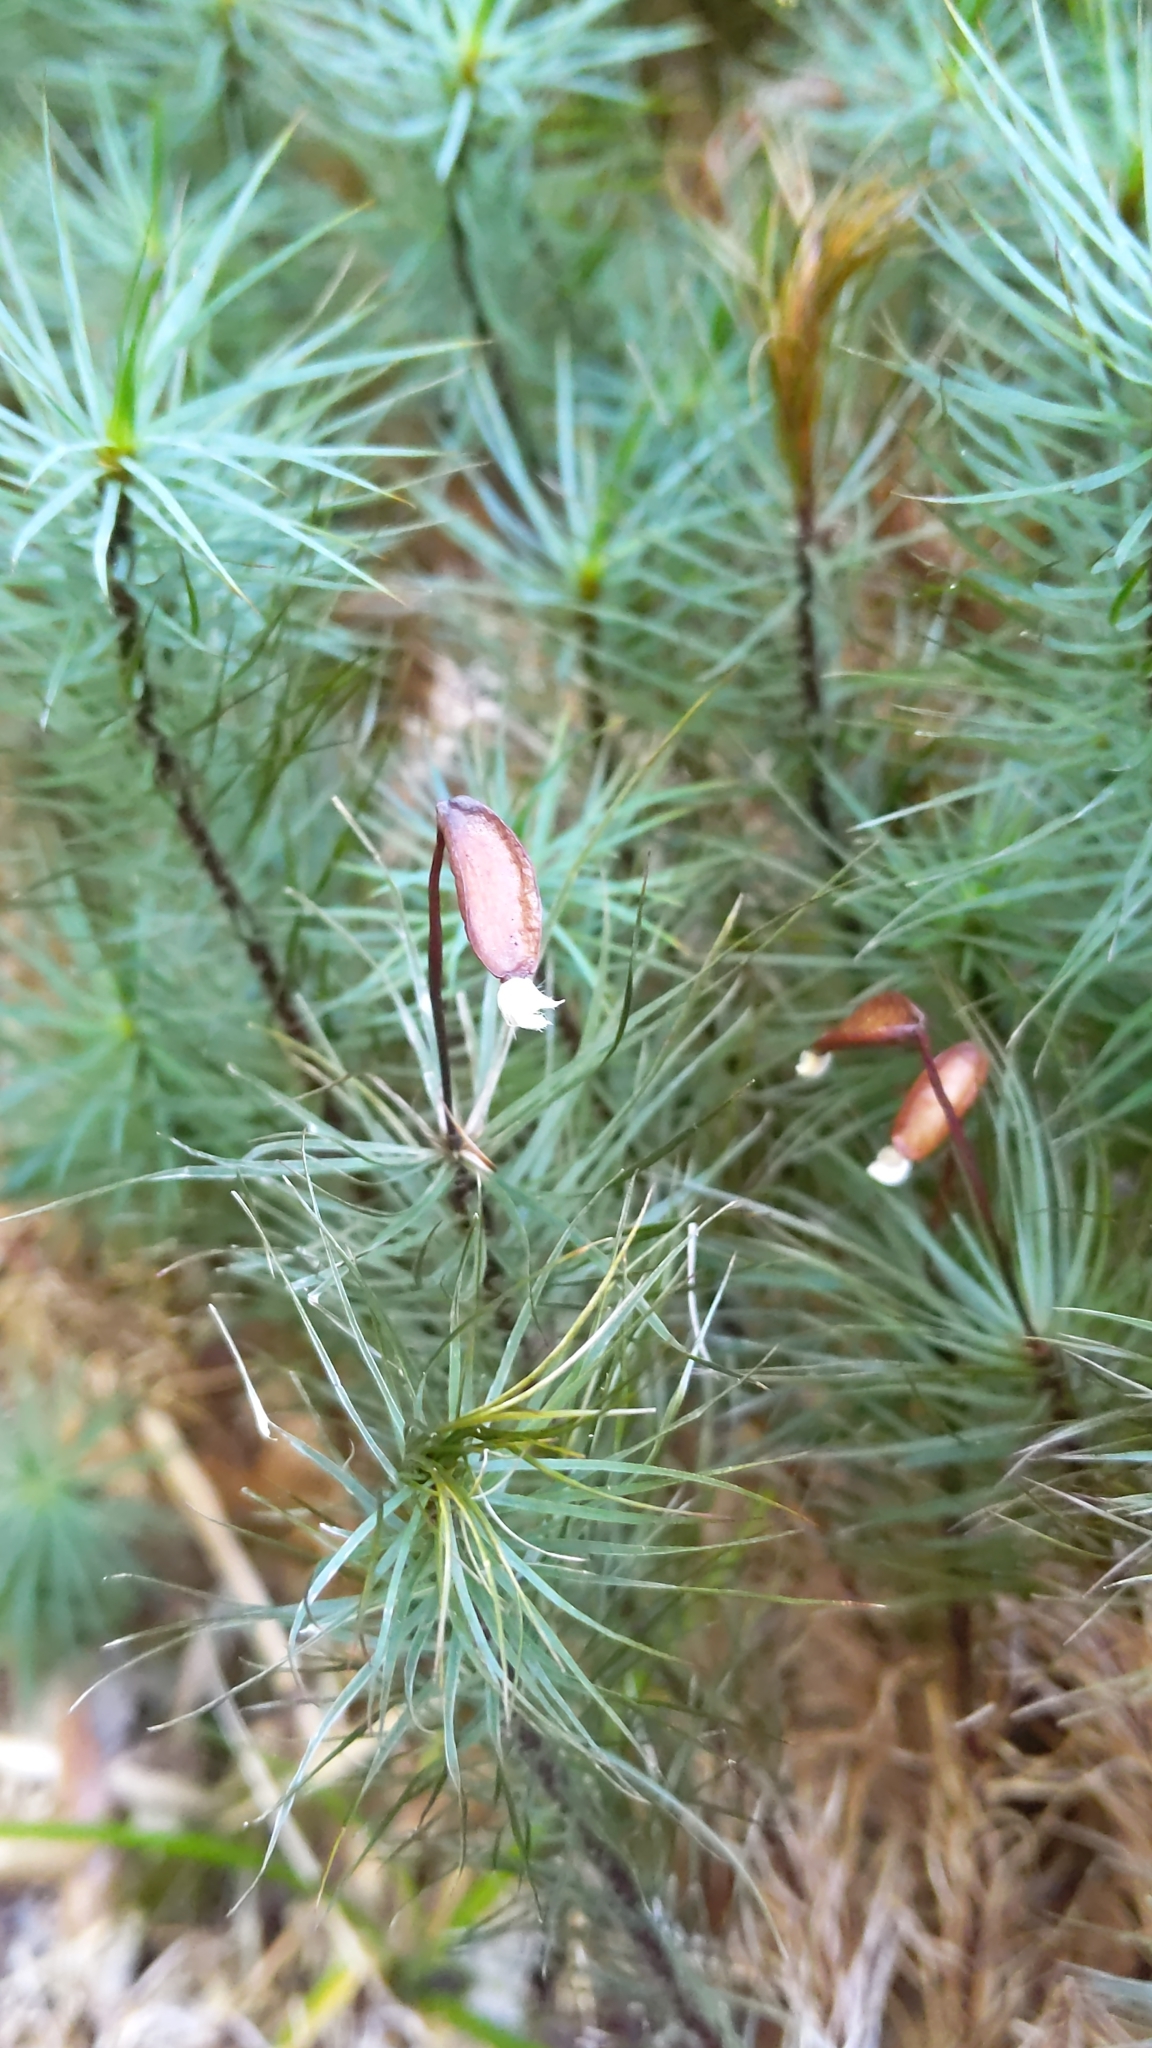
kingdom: Plantae
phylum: Bryophyta
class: Polytrichopsida
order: Polytrichales
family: Polytrichaceae
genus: Dawsonia
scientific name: Dawsonia superba
